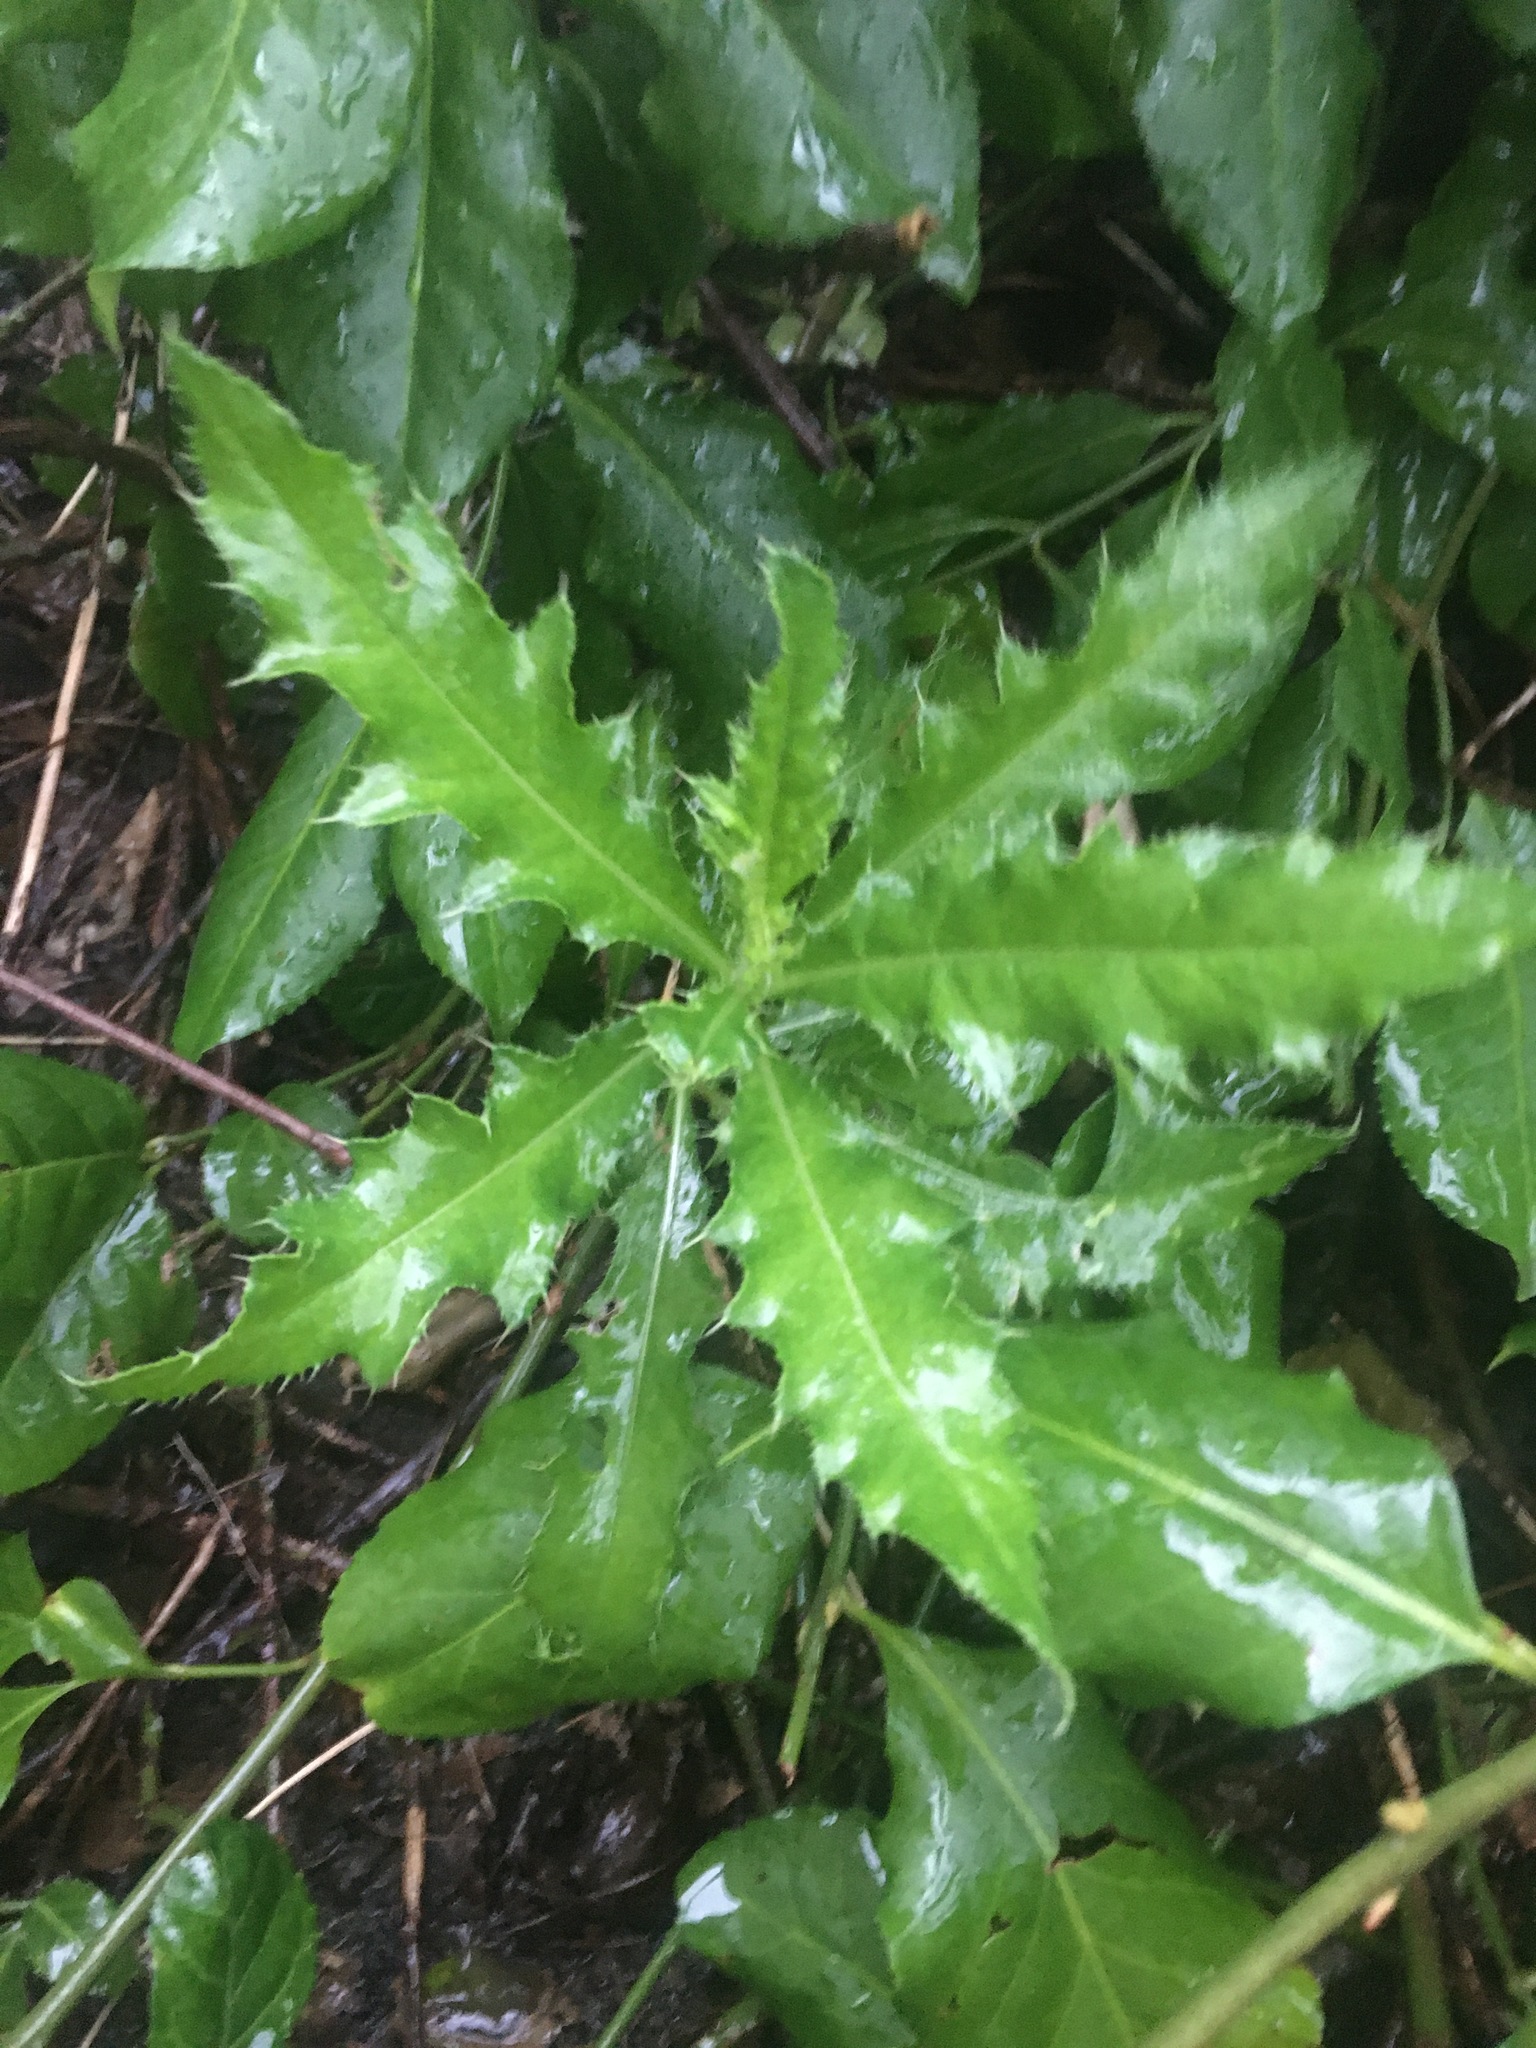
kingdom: Plantae
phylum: Tracheophyta
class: Magnoliopsida
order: Asterales
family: Asteraceae
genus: Cirsium
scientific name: Cirsium arvense
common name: Creeping thistle
